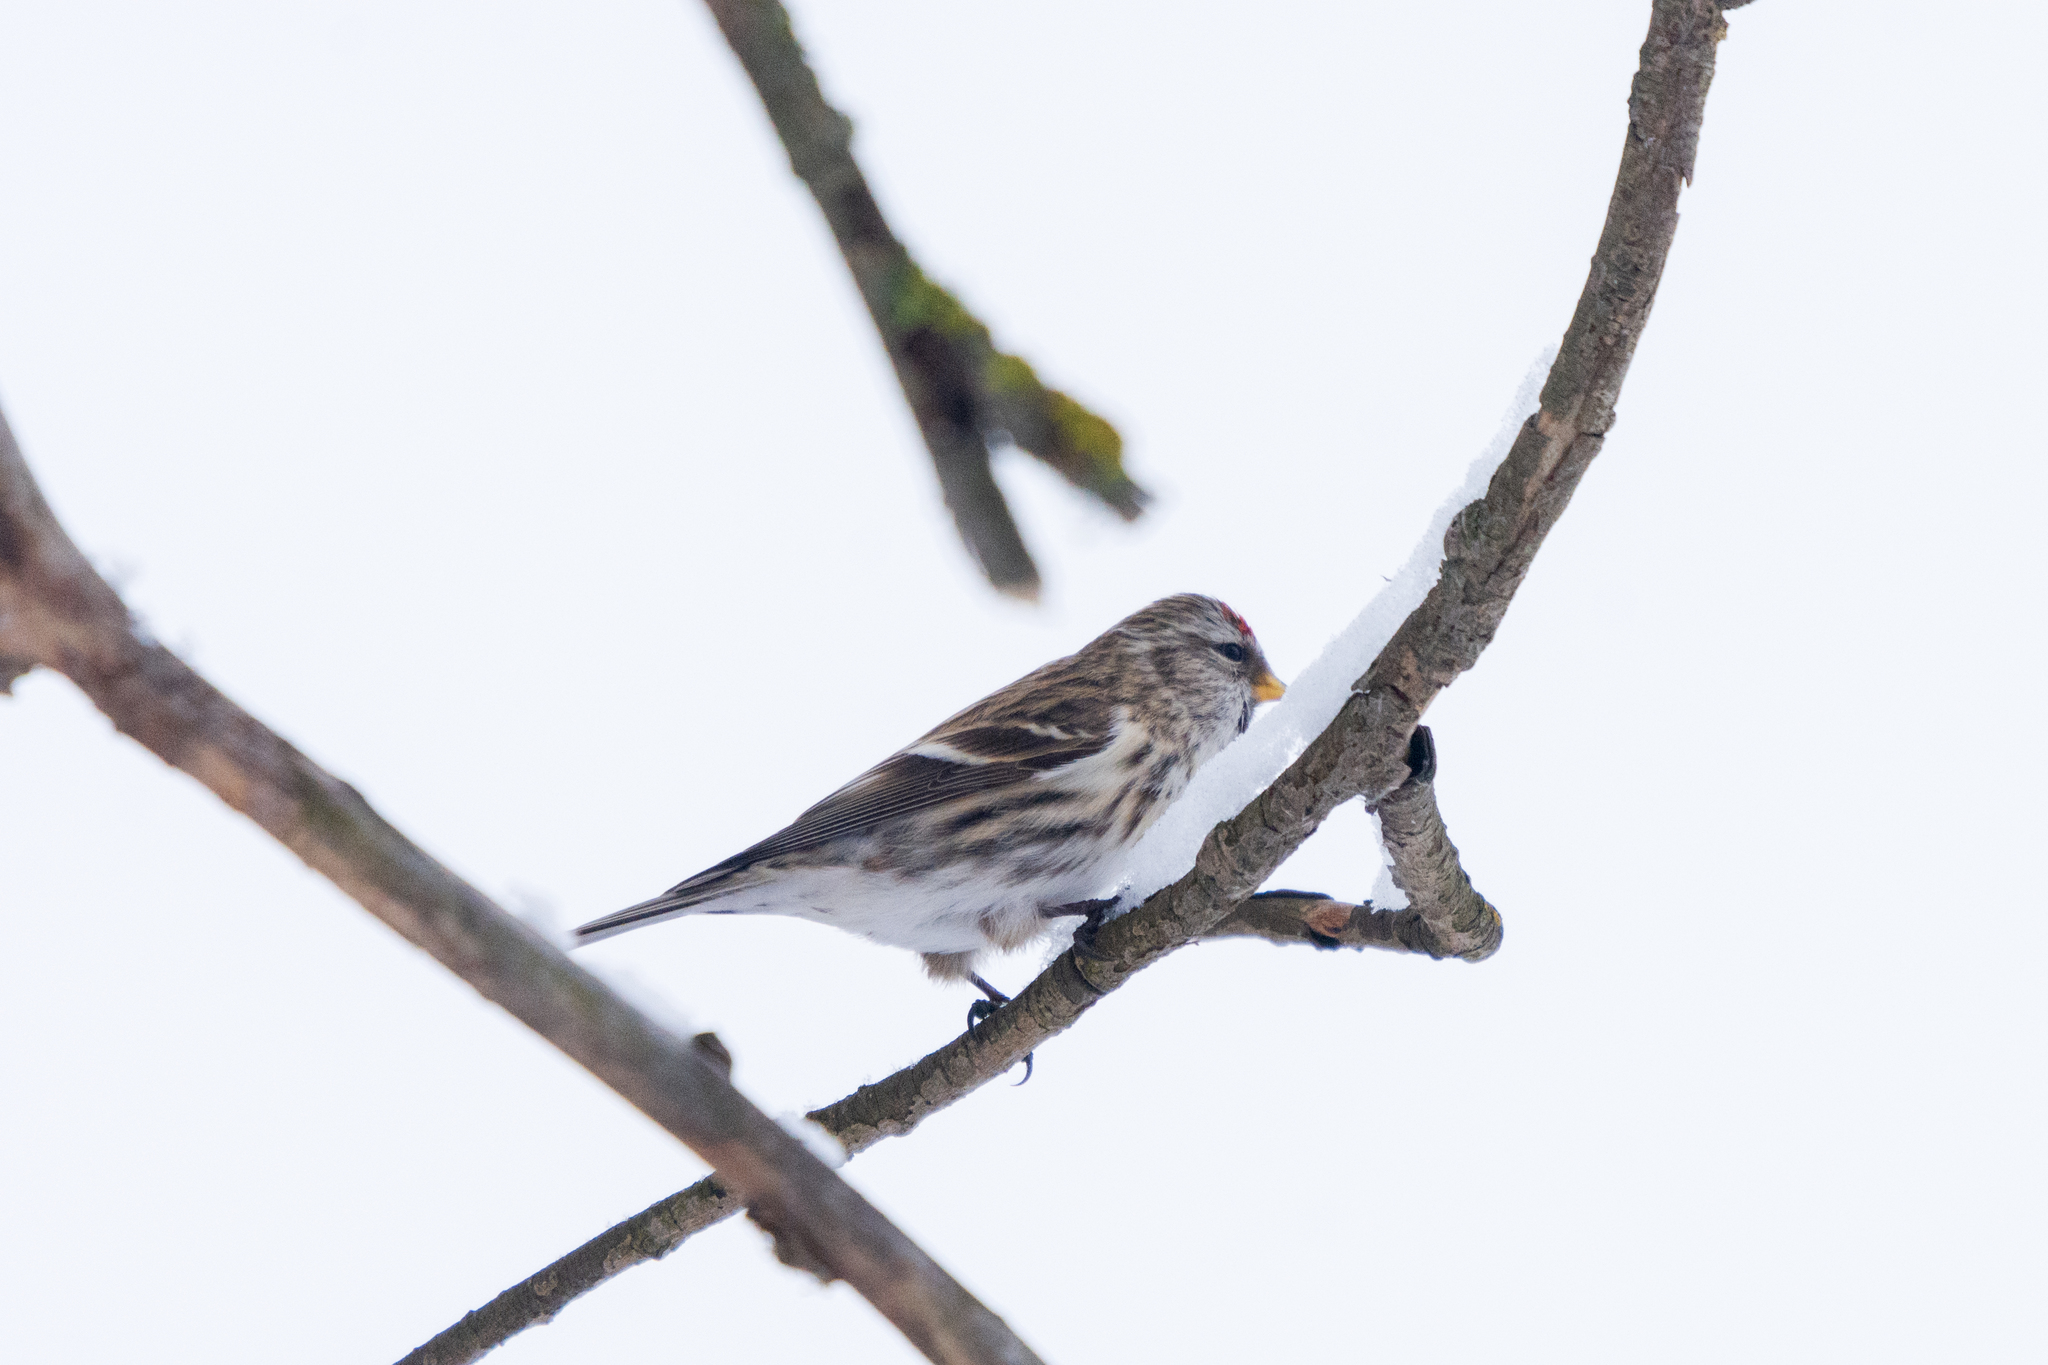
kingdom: Animalia
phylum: Chordata
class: Aves
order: Passeriformes
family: Fringillidae
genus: Acanthis
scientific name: Acanthis flammea
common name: Common redpoll
